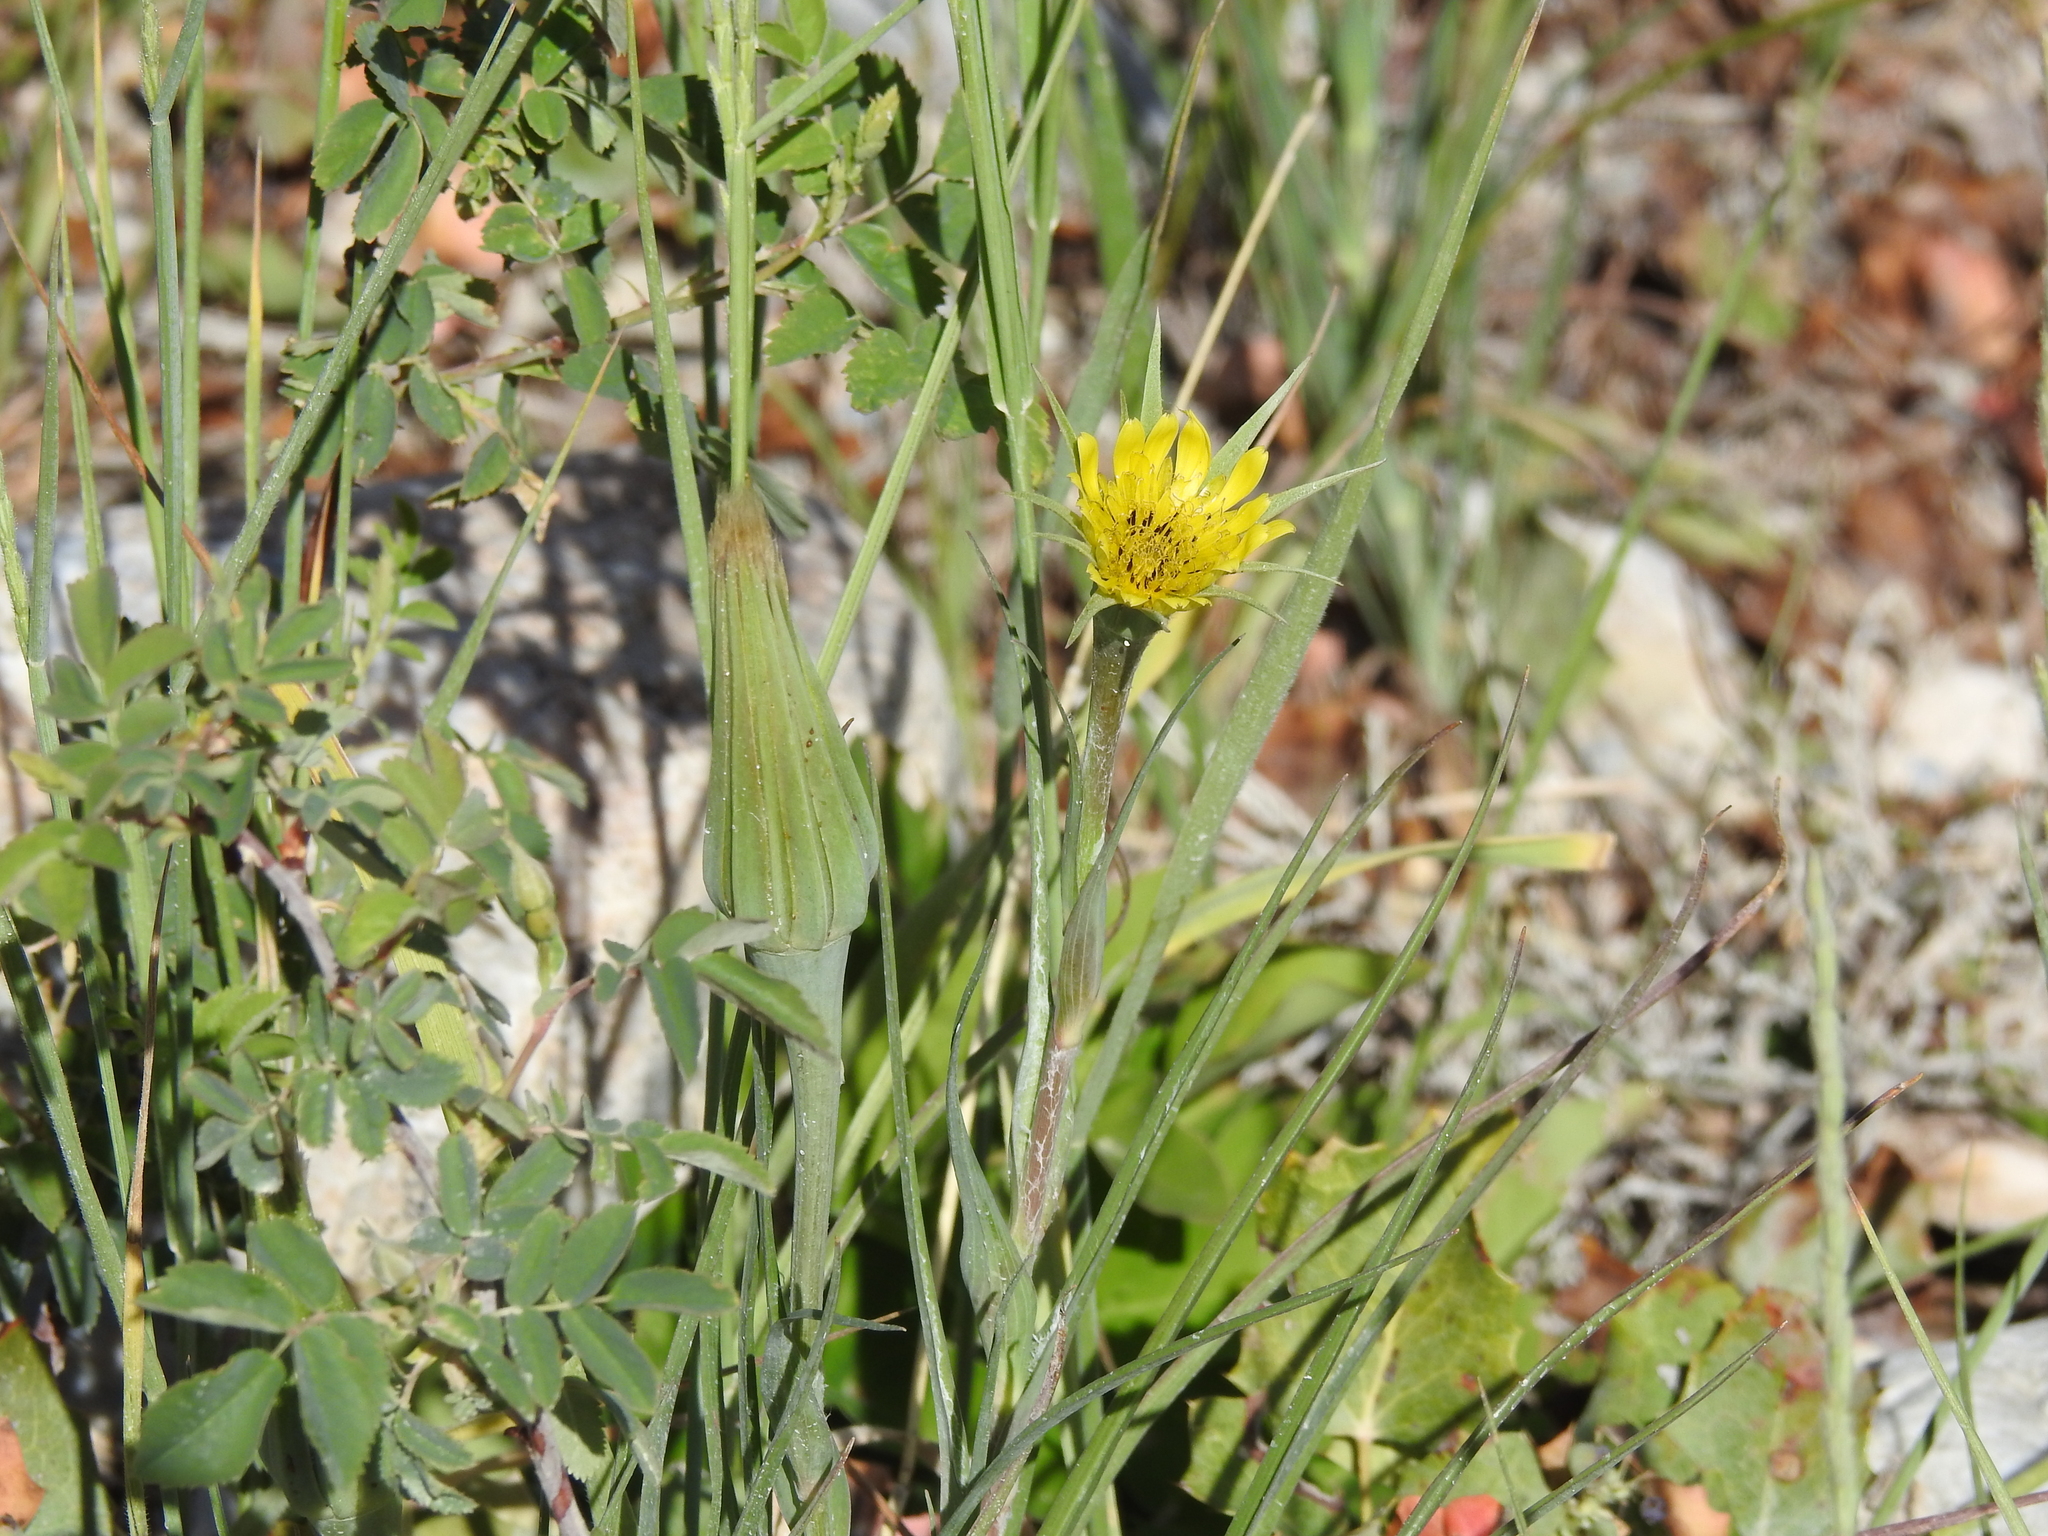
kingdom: Plantae
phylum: Tracheophyta
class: Magnoliopsida
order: Asterales
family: Asteraceae
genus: Tragopogon
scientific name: Tragopogon dubius
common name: Yellow salsify
